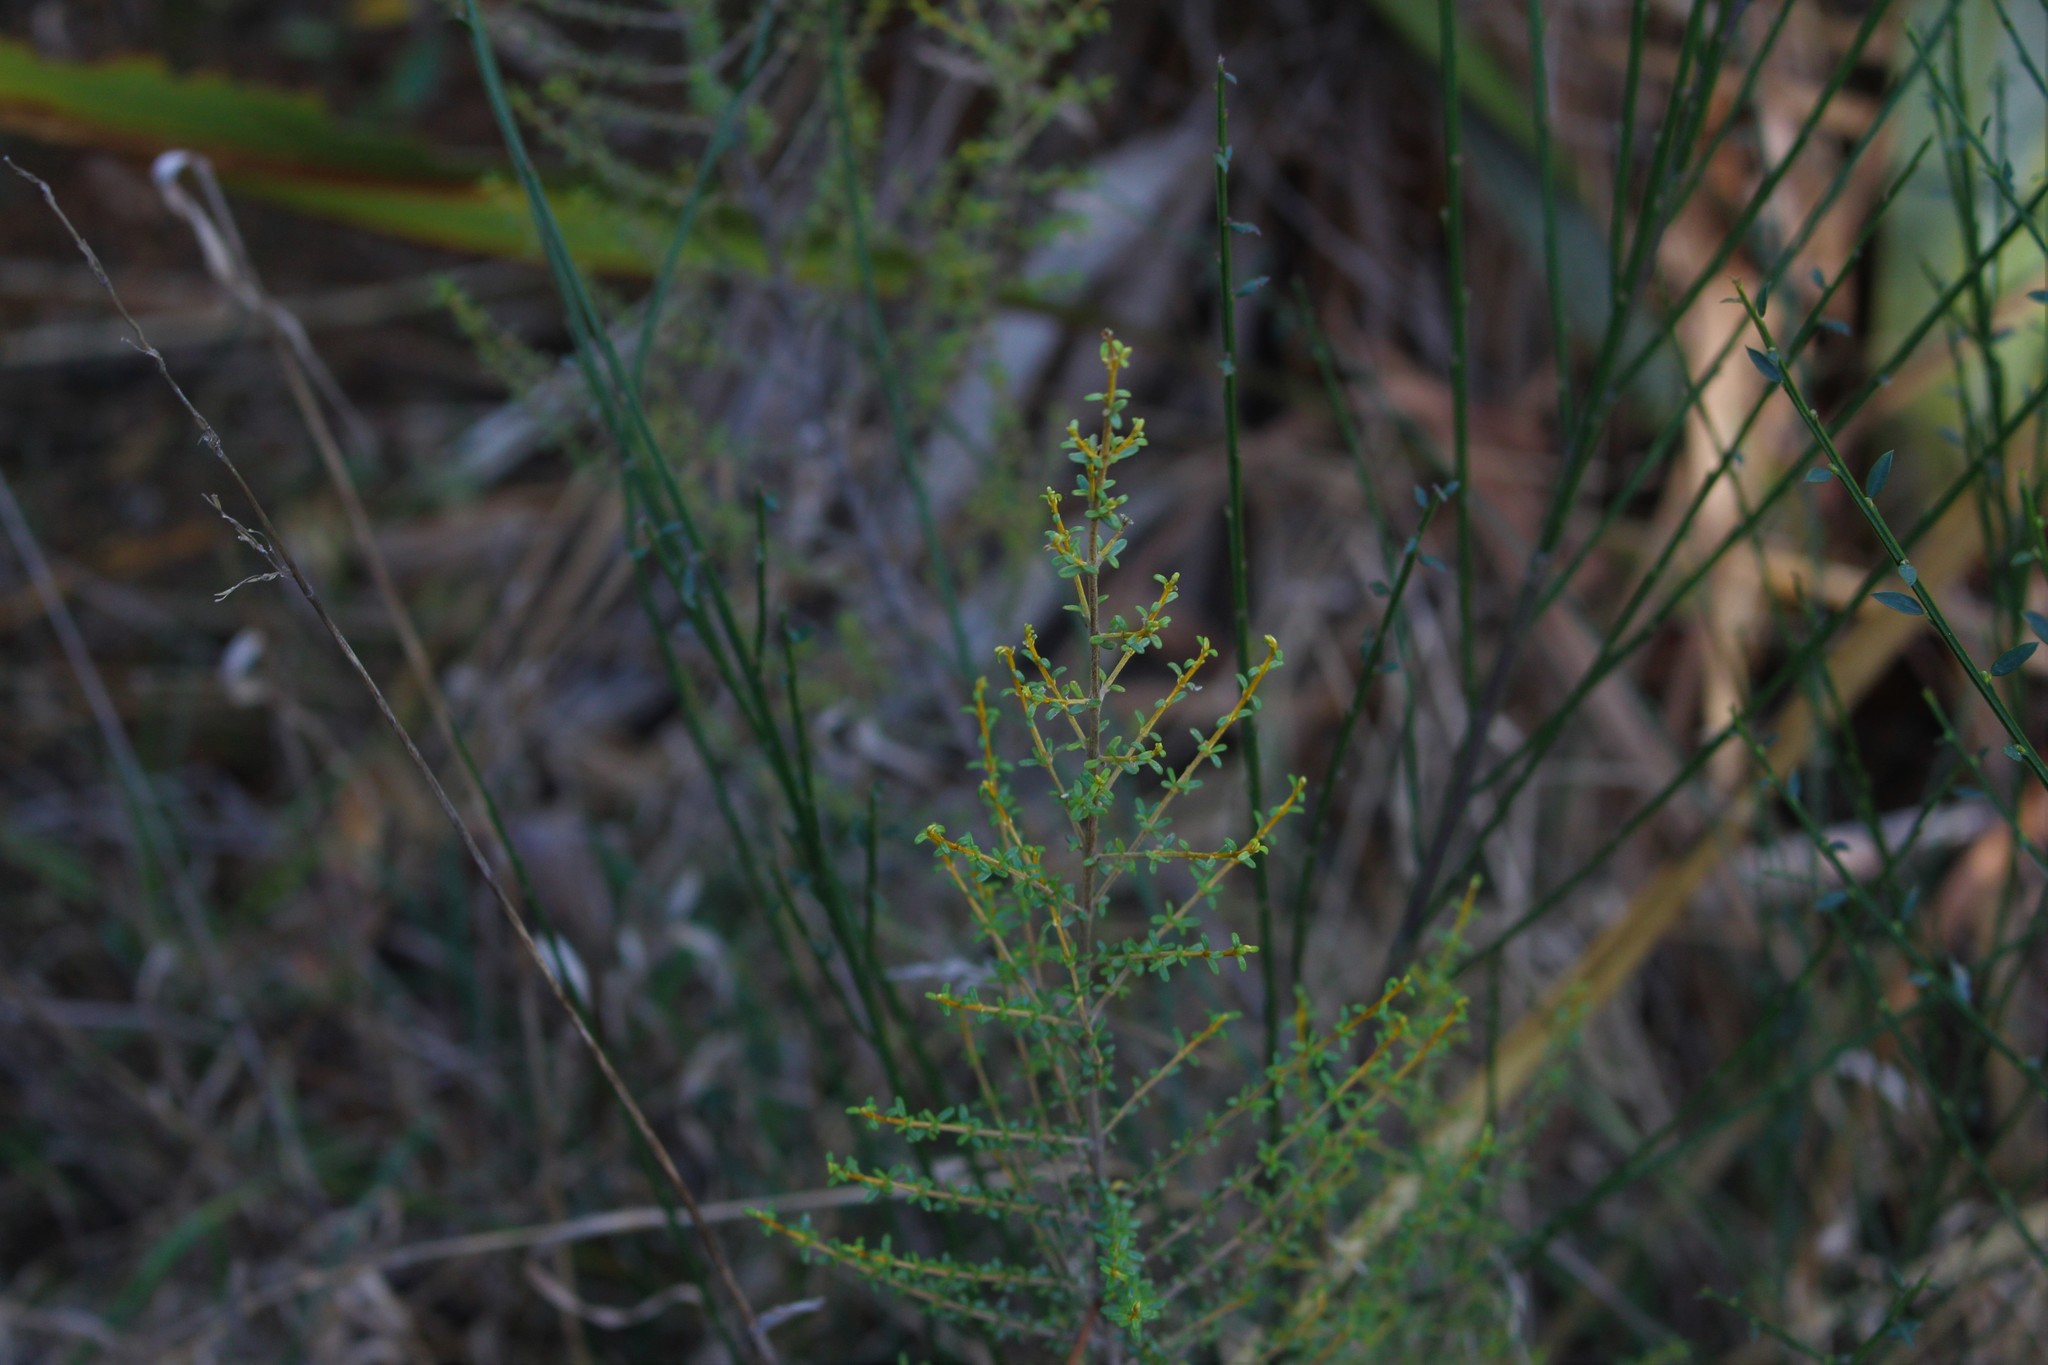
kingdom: Plantae
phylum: Tracheophyta
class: Magnoliopsida
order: Asterales
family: Asteraceae
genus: Olearia
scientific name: Olearia solandri
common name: Coastal daisybush
